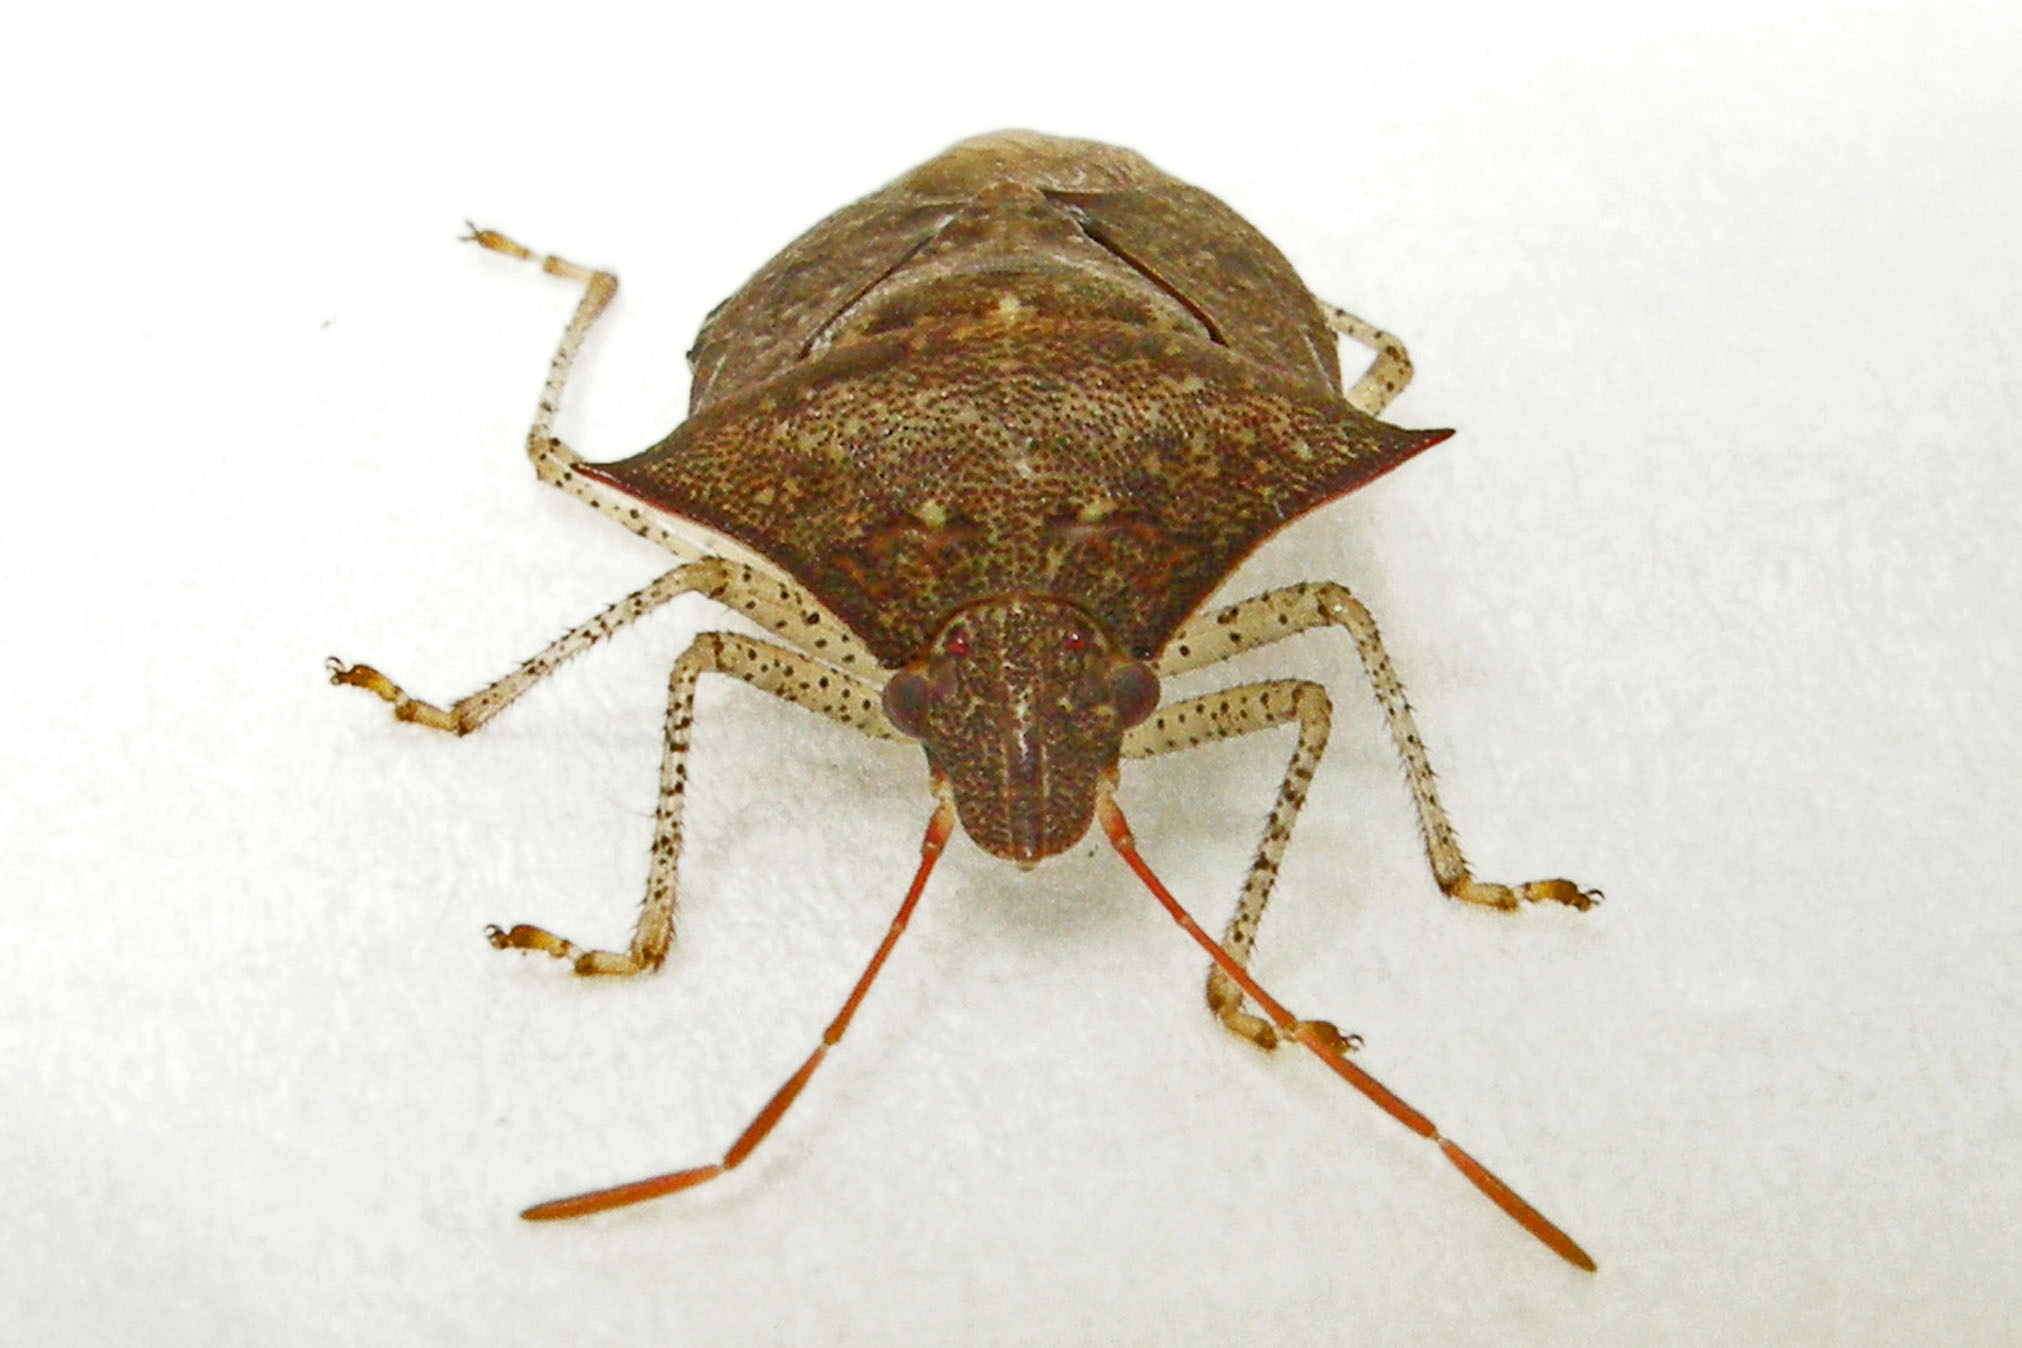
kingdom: Animalia
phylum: Arthropoda
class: Insecta
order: Hemiptera
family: Pentatomidae
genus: Euschistus
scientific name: Euschistus tristigmus
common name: Dusky stink bug
